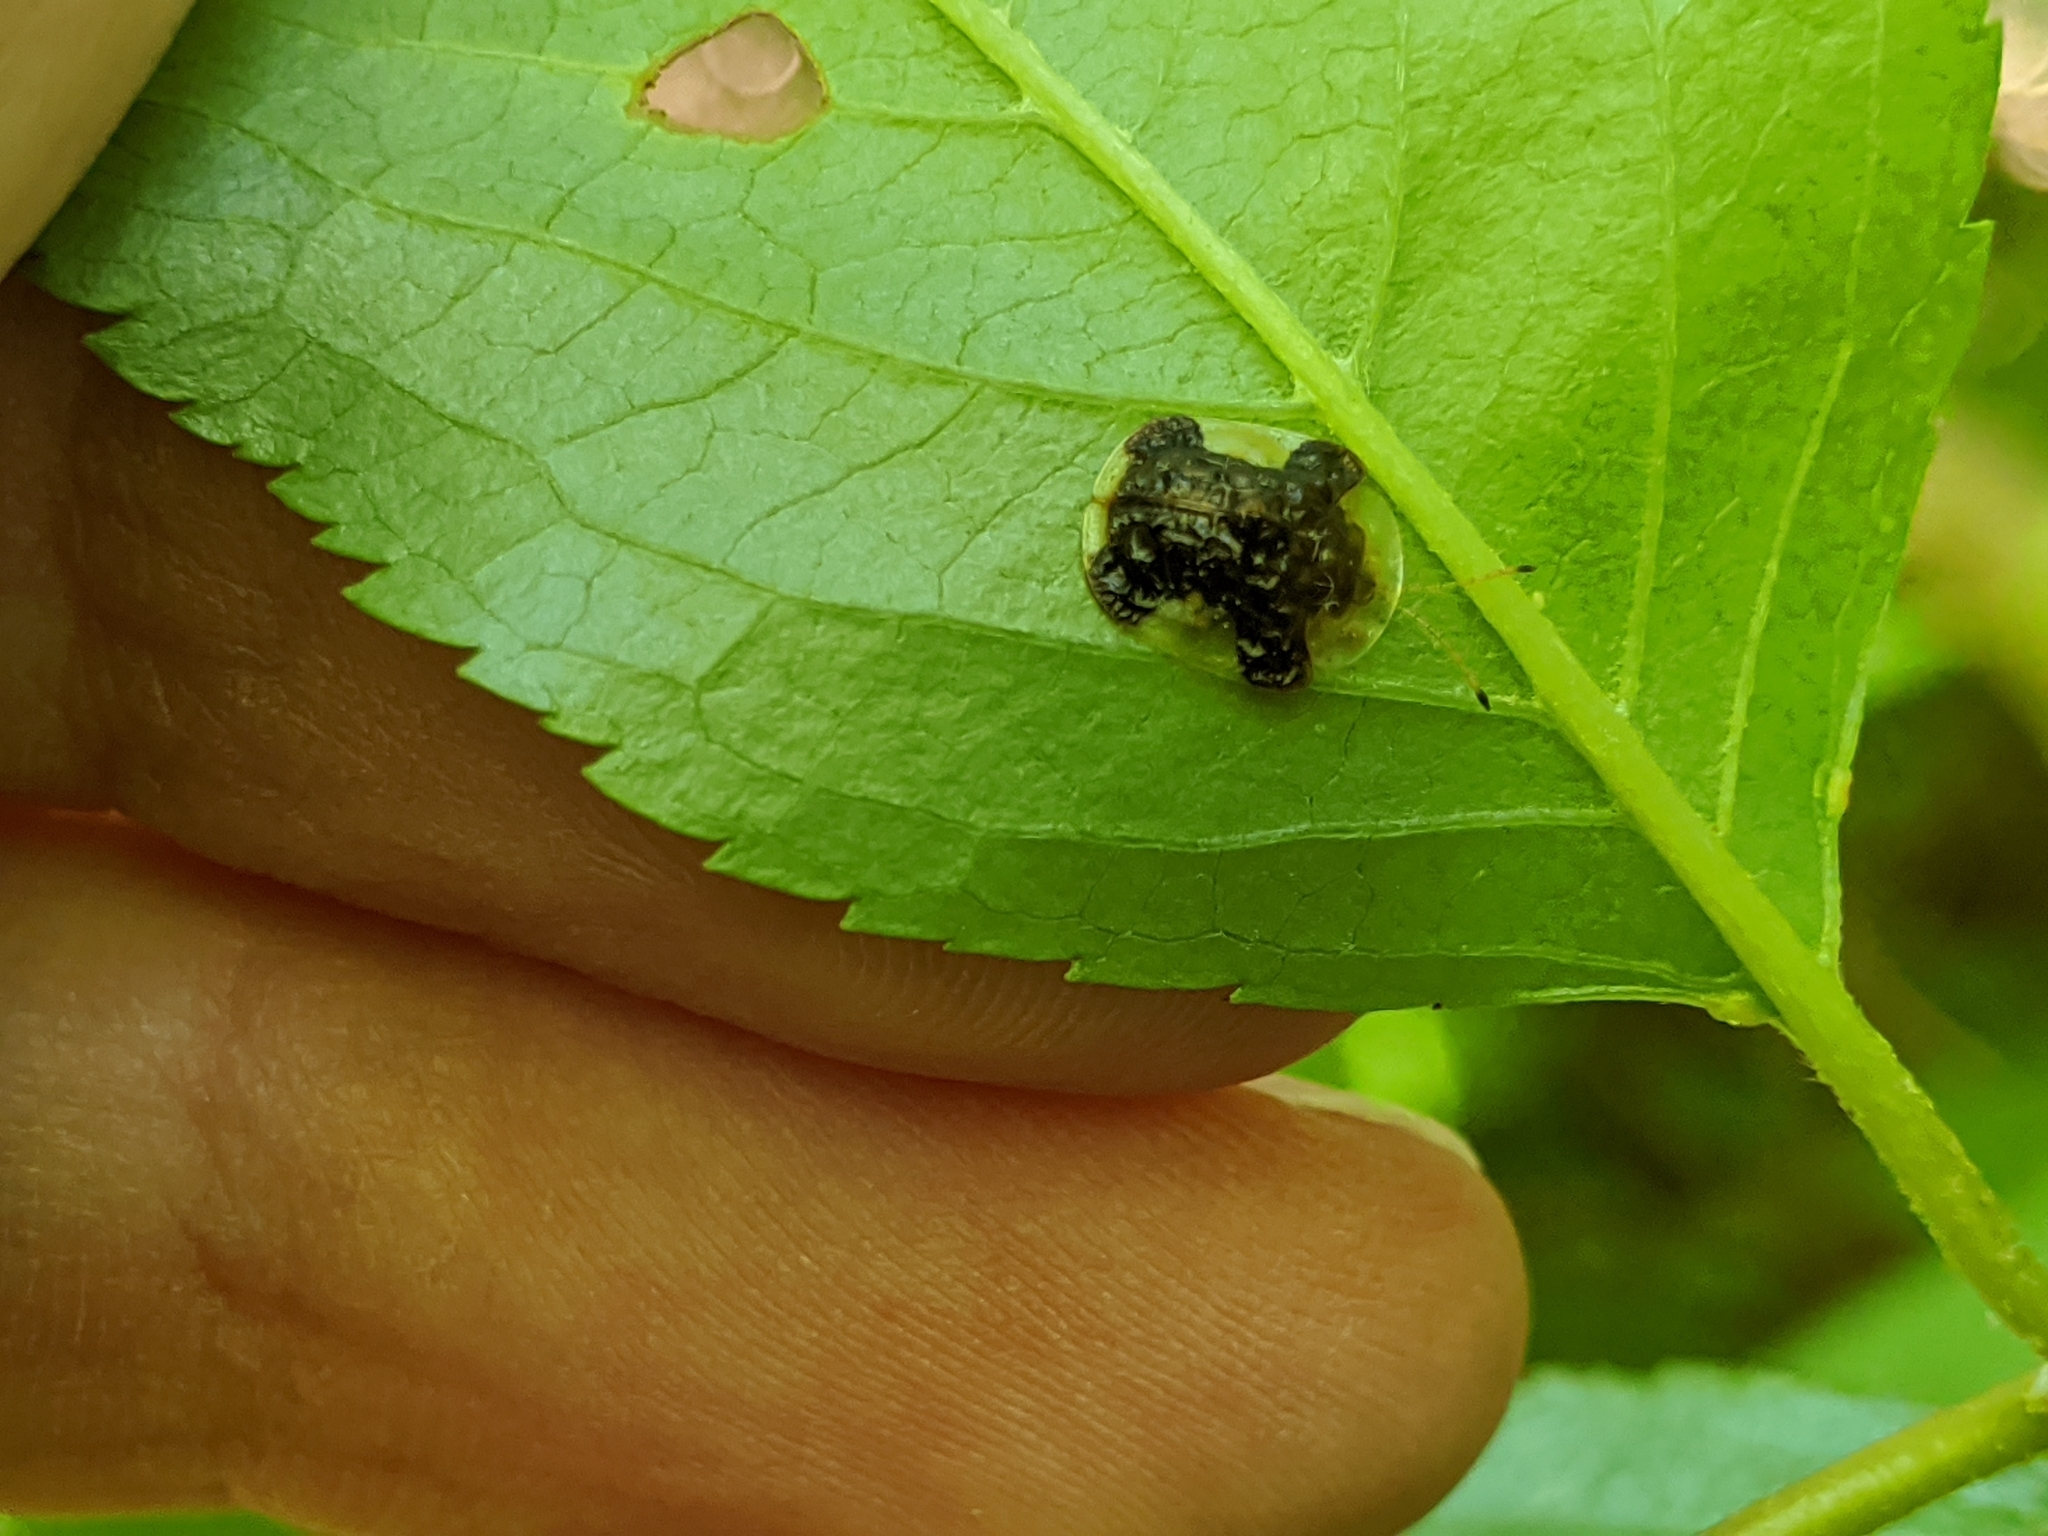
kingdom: Animalia
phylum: Arthropoda
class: Insecta
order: Coleoptera
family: Chrysomelidae
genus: Helocassis
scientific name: Helocassis clavata
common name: Clavate tortoise beetle
